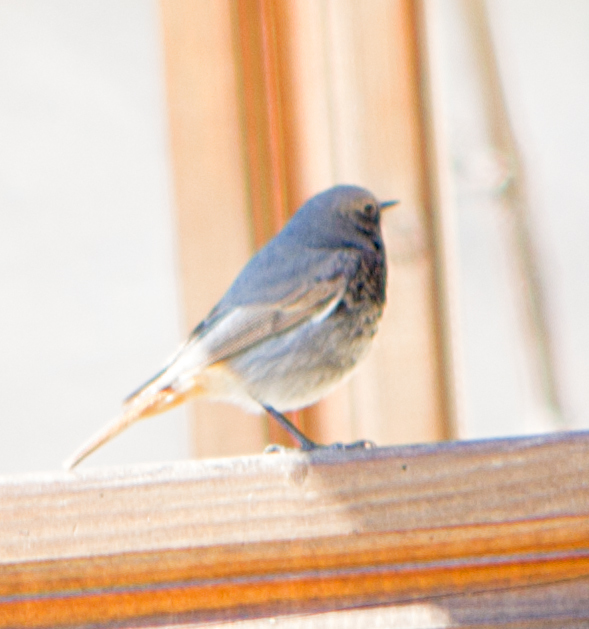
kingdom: Animalia
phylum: Chordata
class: Aves
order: Passeriformes
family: Muscicapidae
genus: Phoenicurus
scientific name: Phoenicurus ochruros
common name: Black redstart
